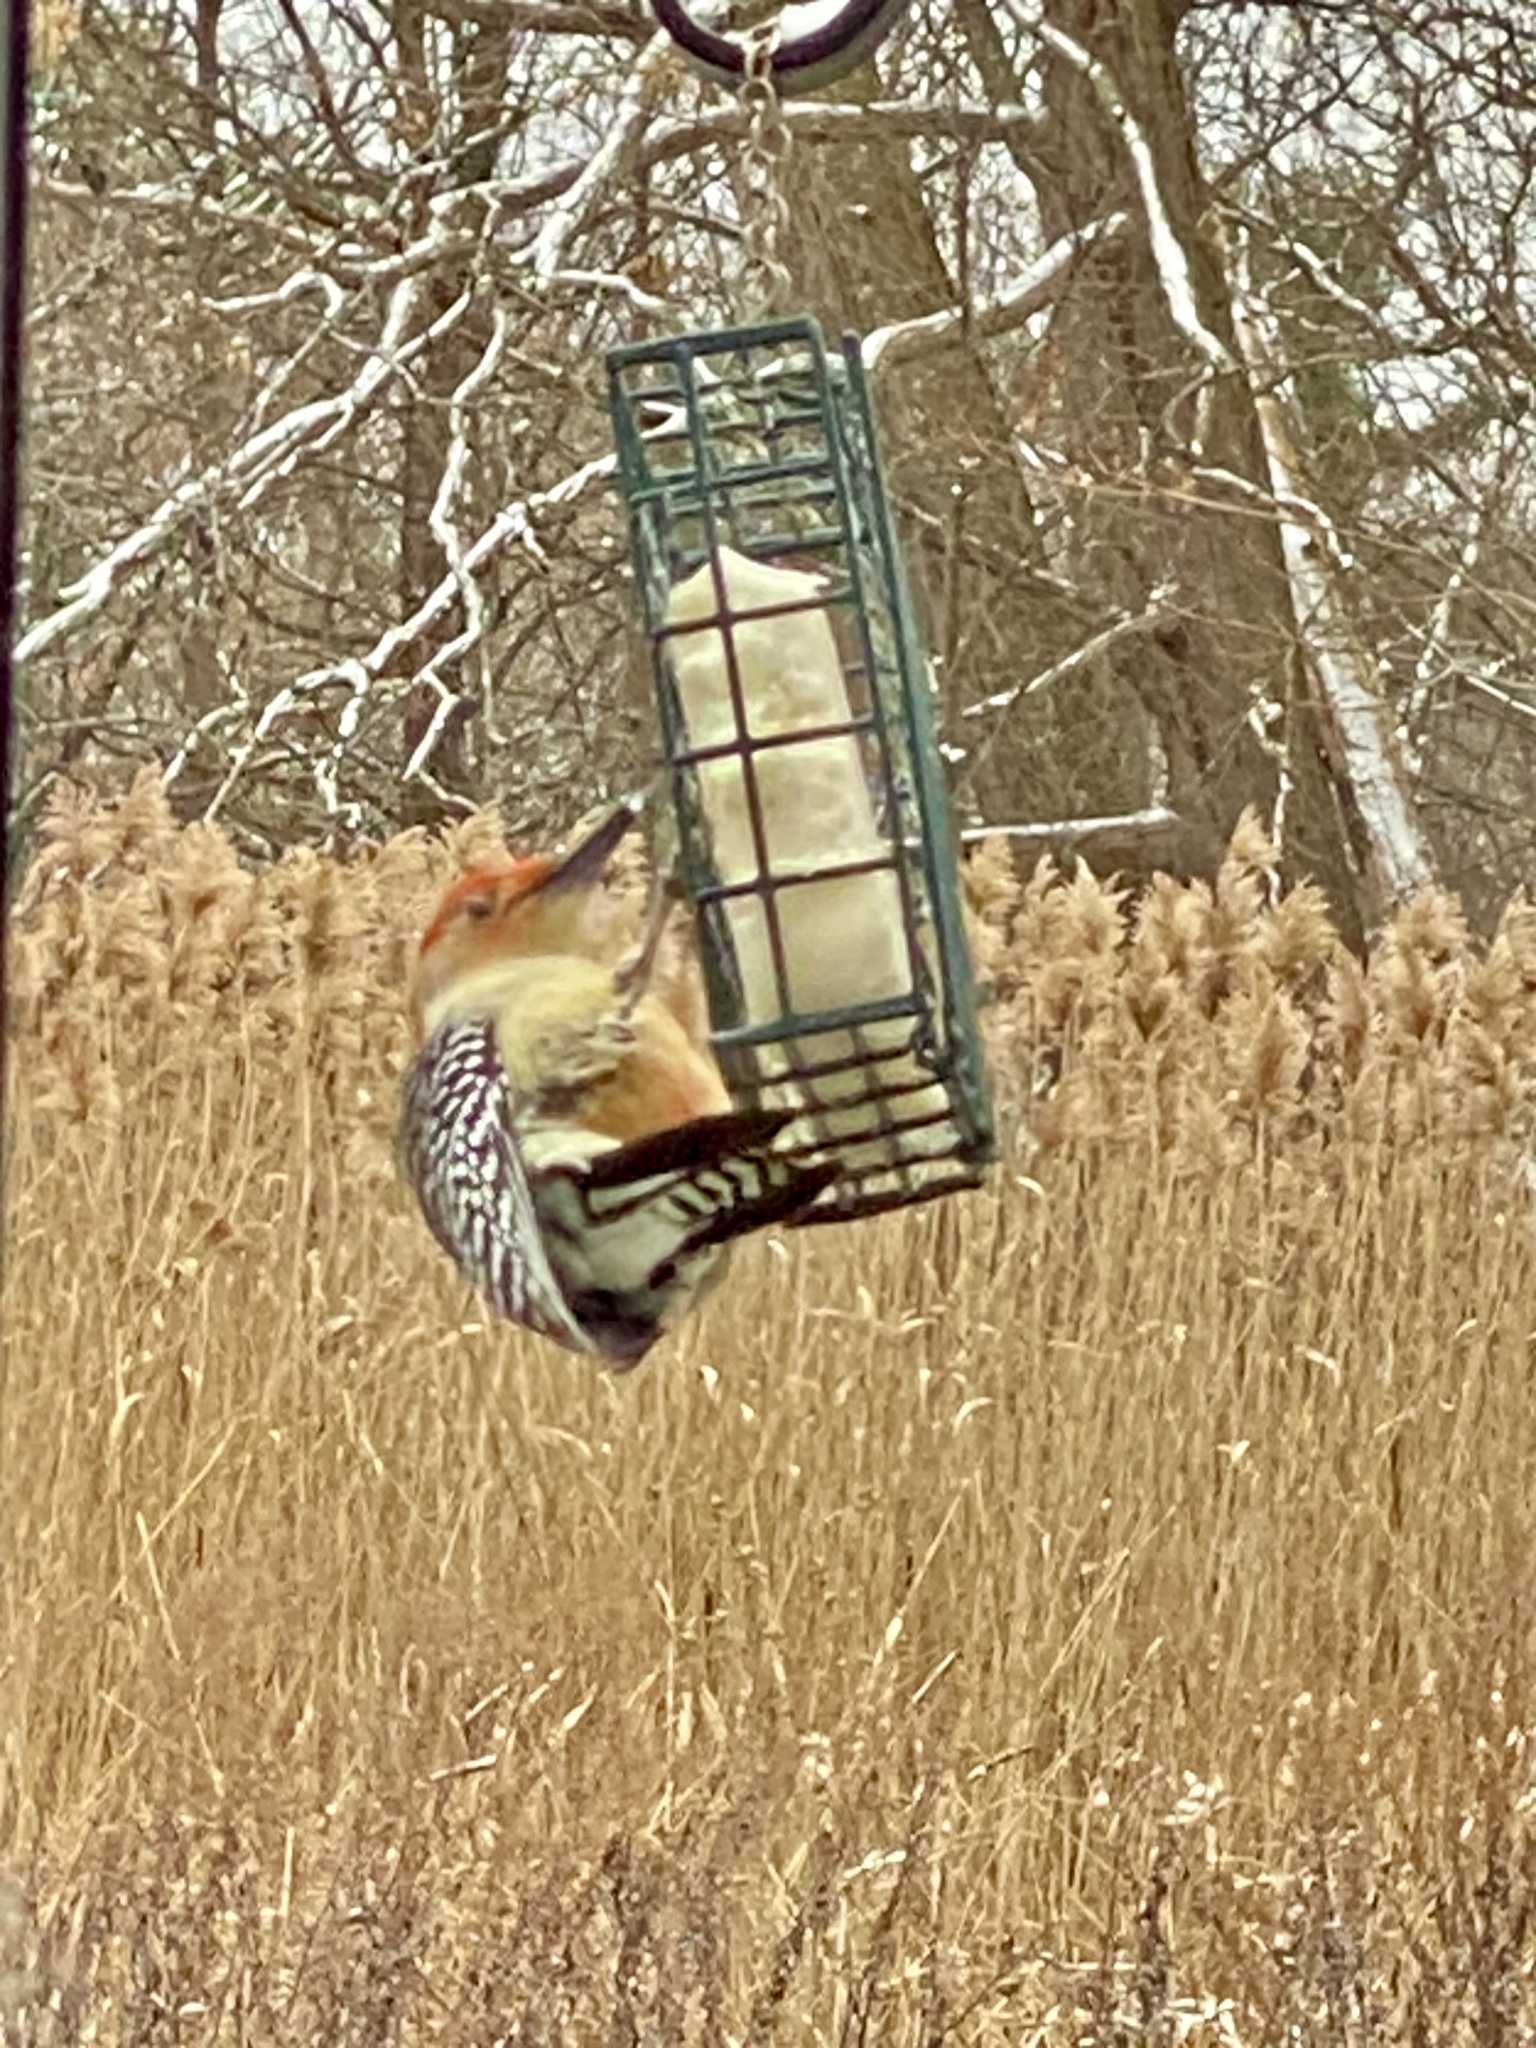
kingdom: Animalia
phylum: Chordata
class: Aves
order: Piciformes
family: Picidae
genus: Melanerpes
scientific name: Melanerpes carolinus
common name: Red-bellied woodpecker
